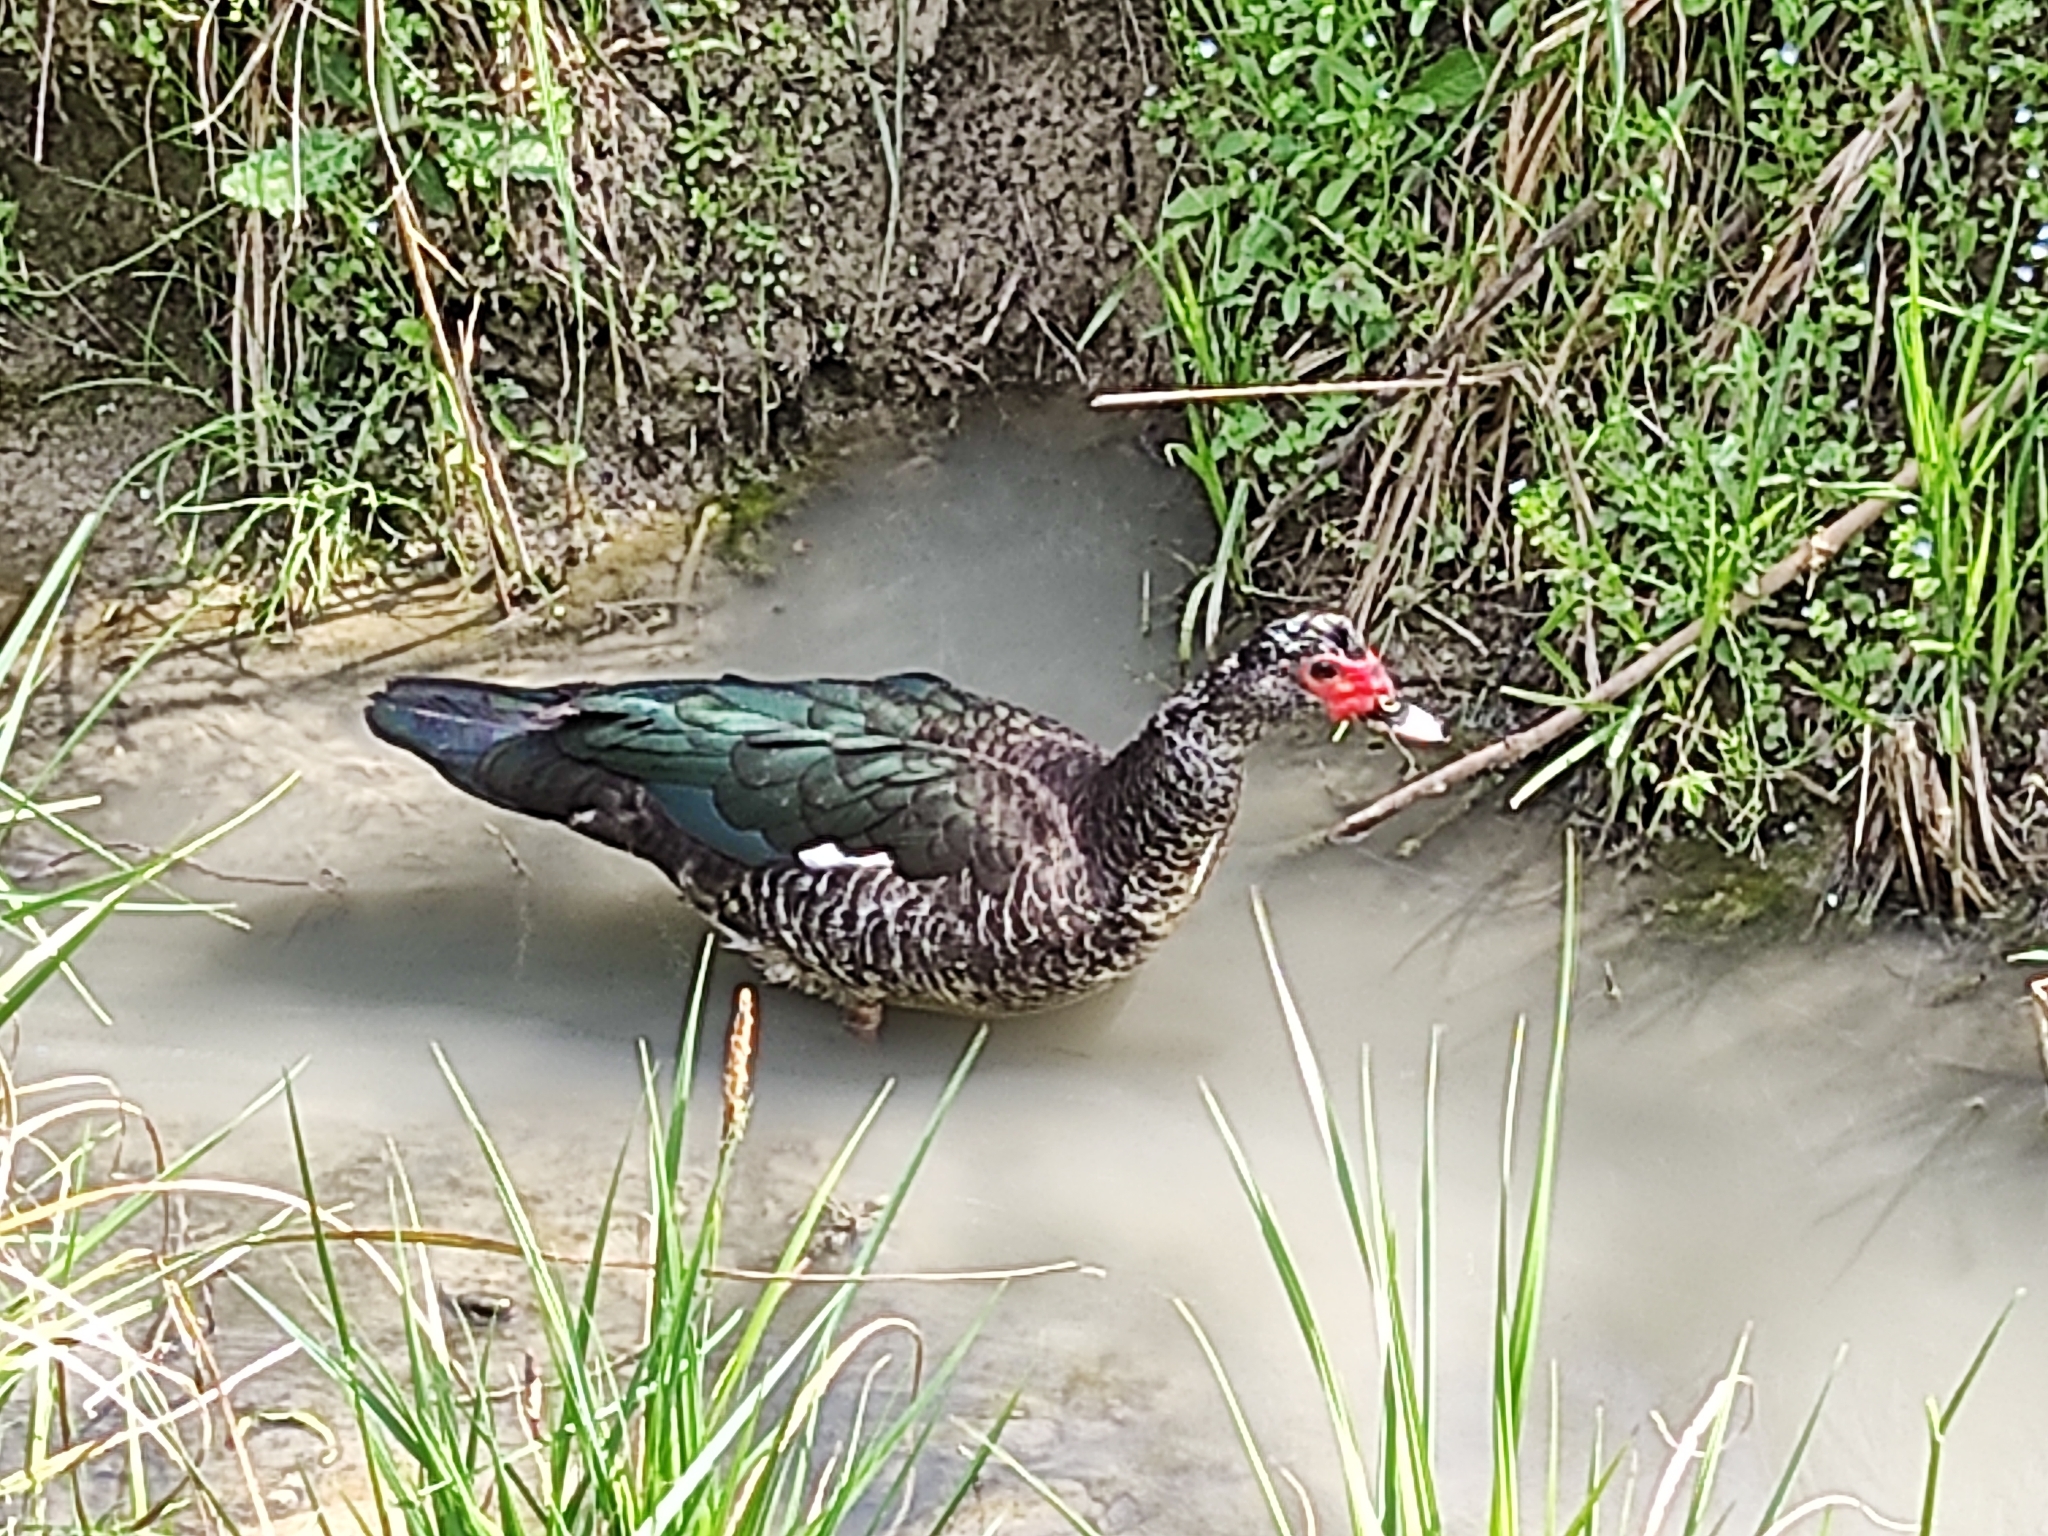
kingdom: Animalia
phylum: Chordata
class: Aves
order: Anseriformes
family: Anatidae
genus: Cairina
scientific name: Cairina moschata
